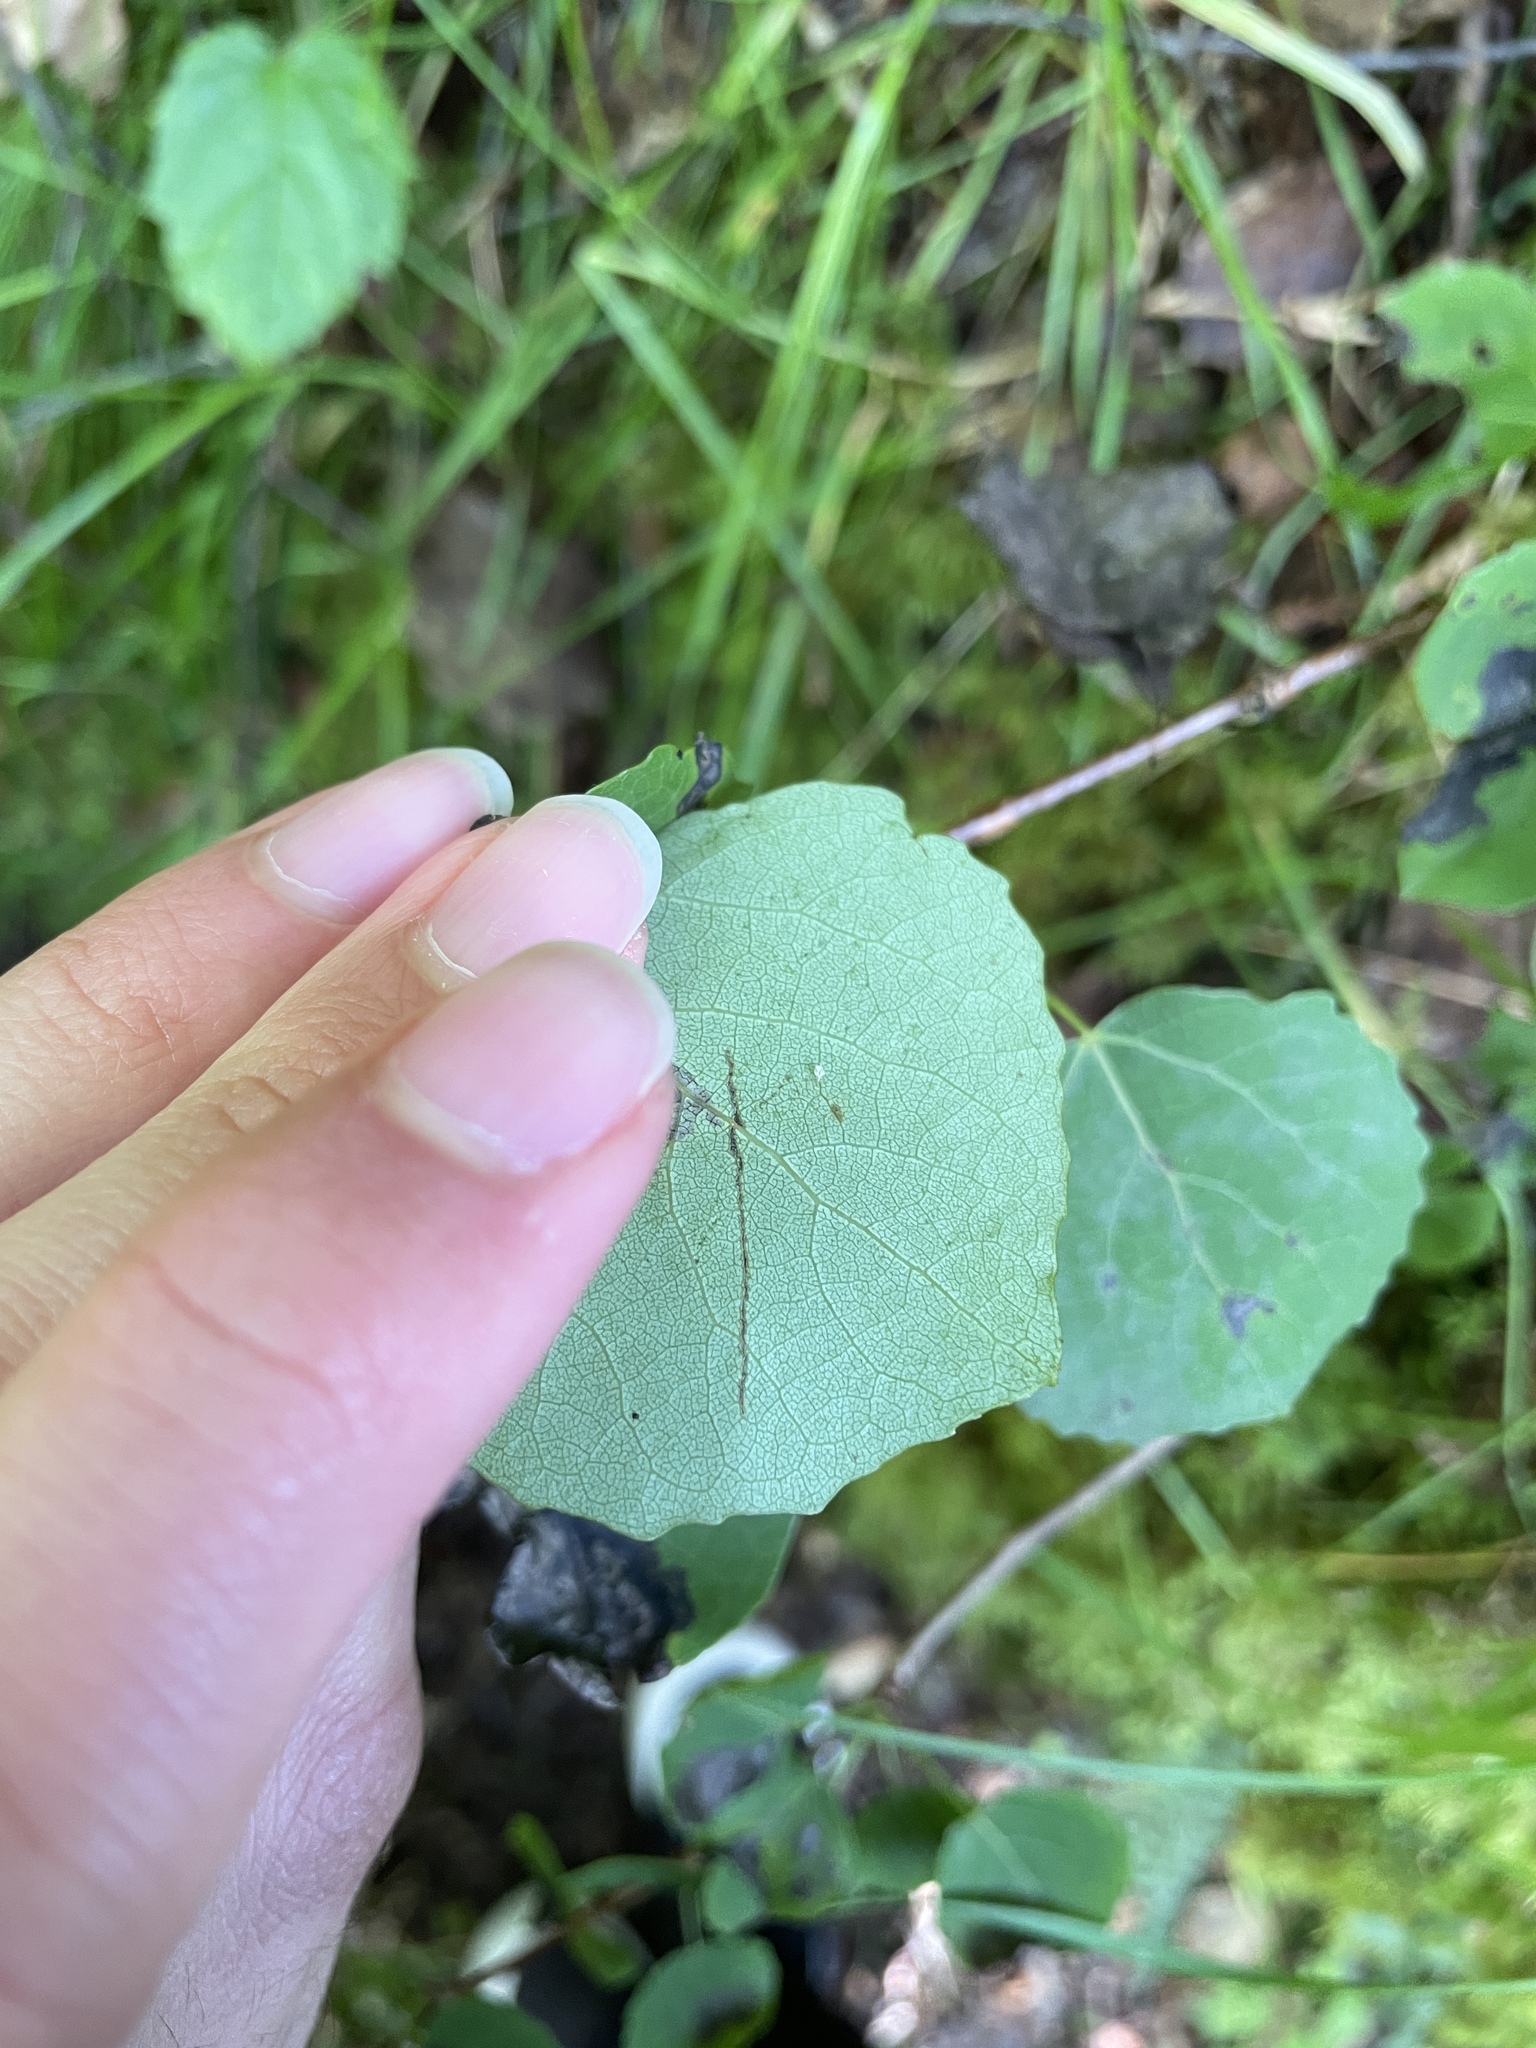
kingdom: Plantae
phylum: Tracheophyta
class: Magnoliopsida
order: Malpighiales
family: Salicaceae
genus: Populus
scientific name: Populus tremula
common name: European aspen
